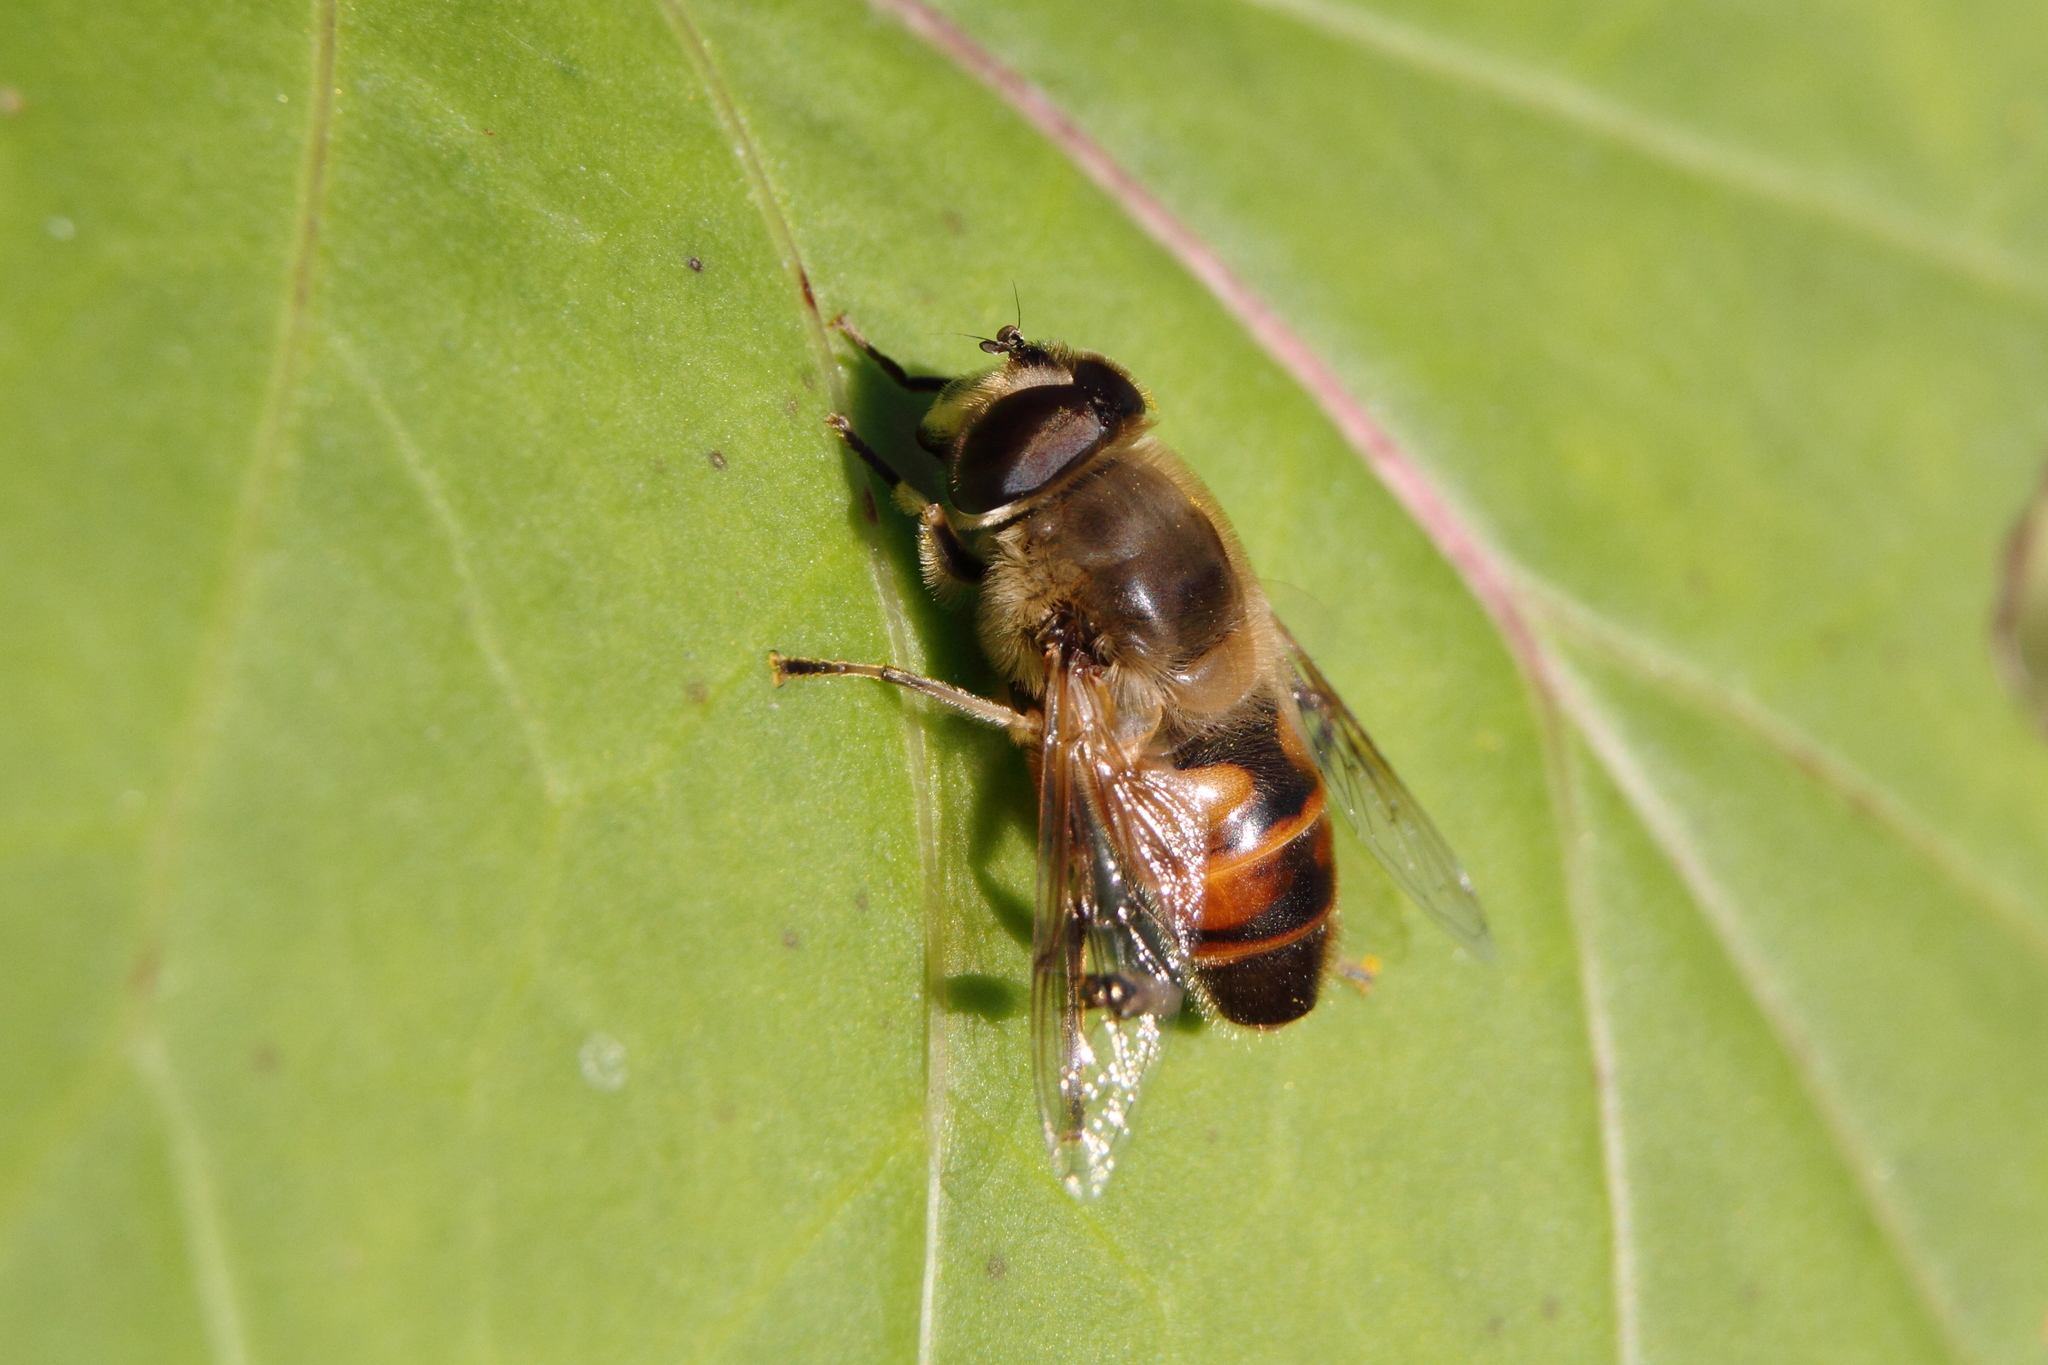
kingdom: Animalia
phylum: Arthropoda
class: Insecta
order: Diptera
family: Syrphidae
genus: Eristalis
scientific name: Eristalis tenax
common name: Drone fly
